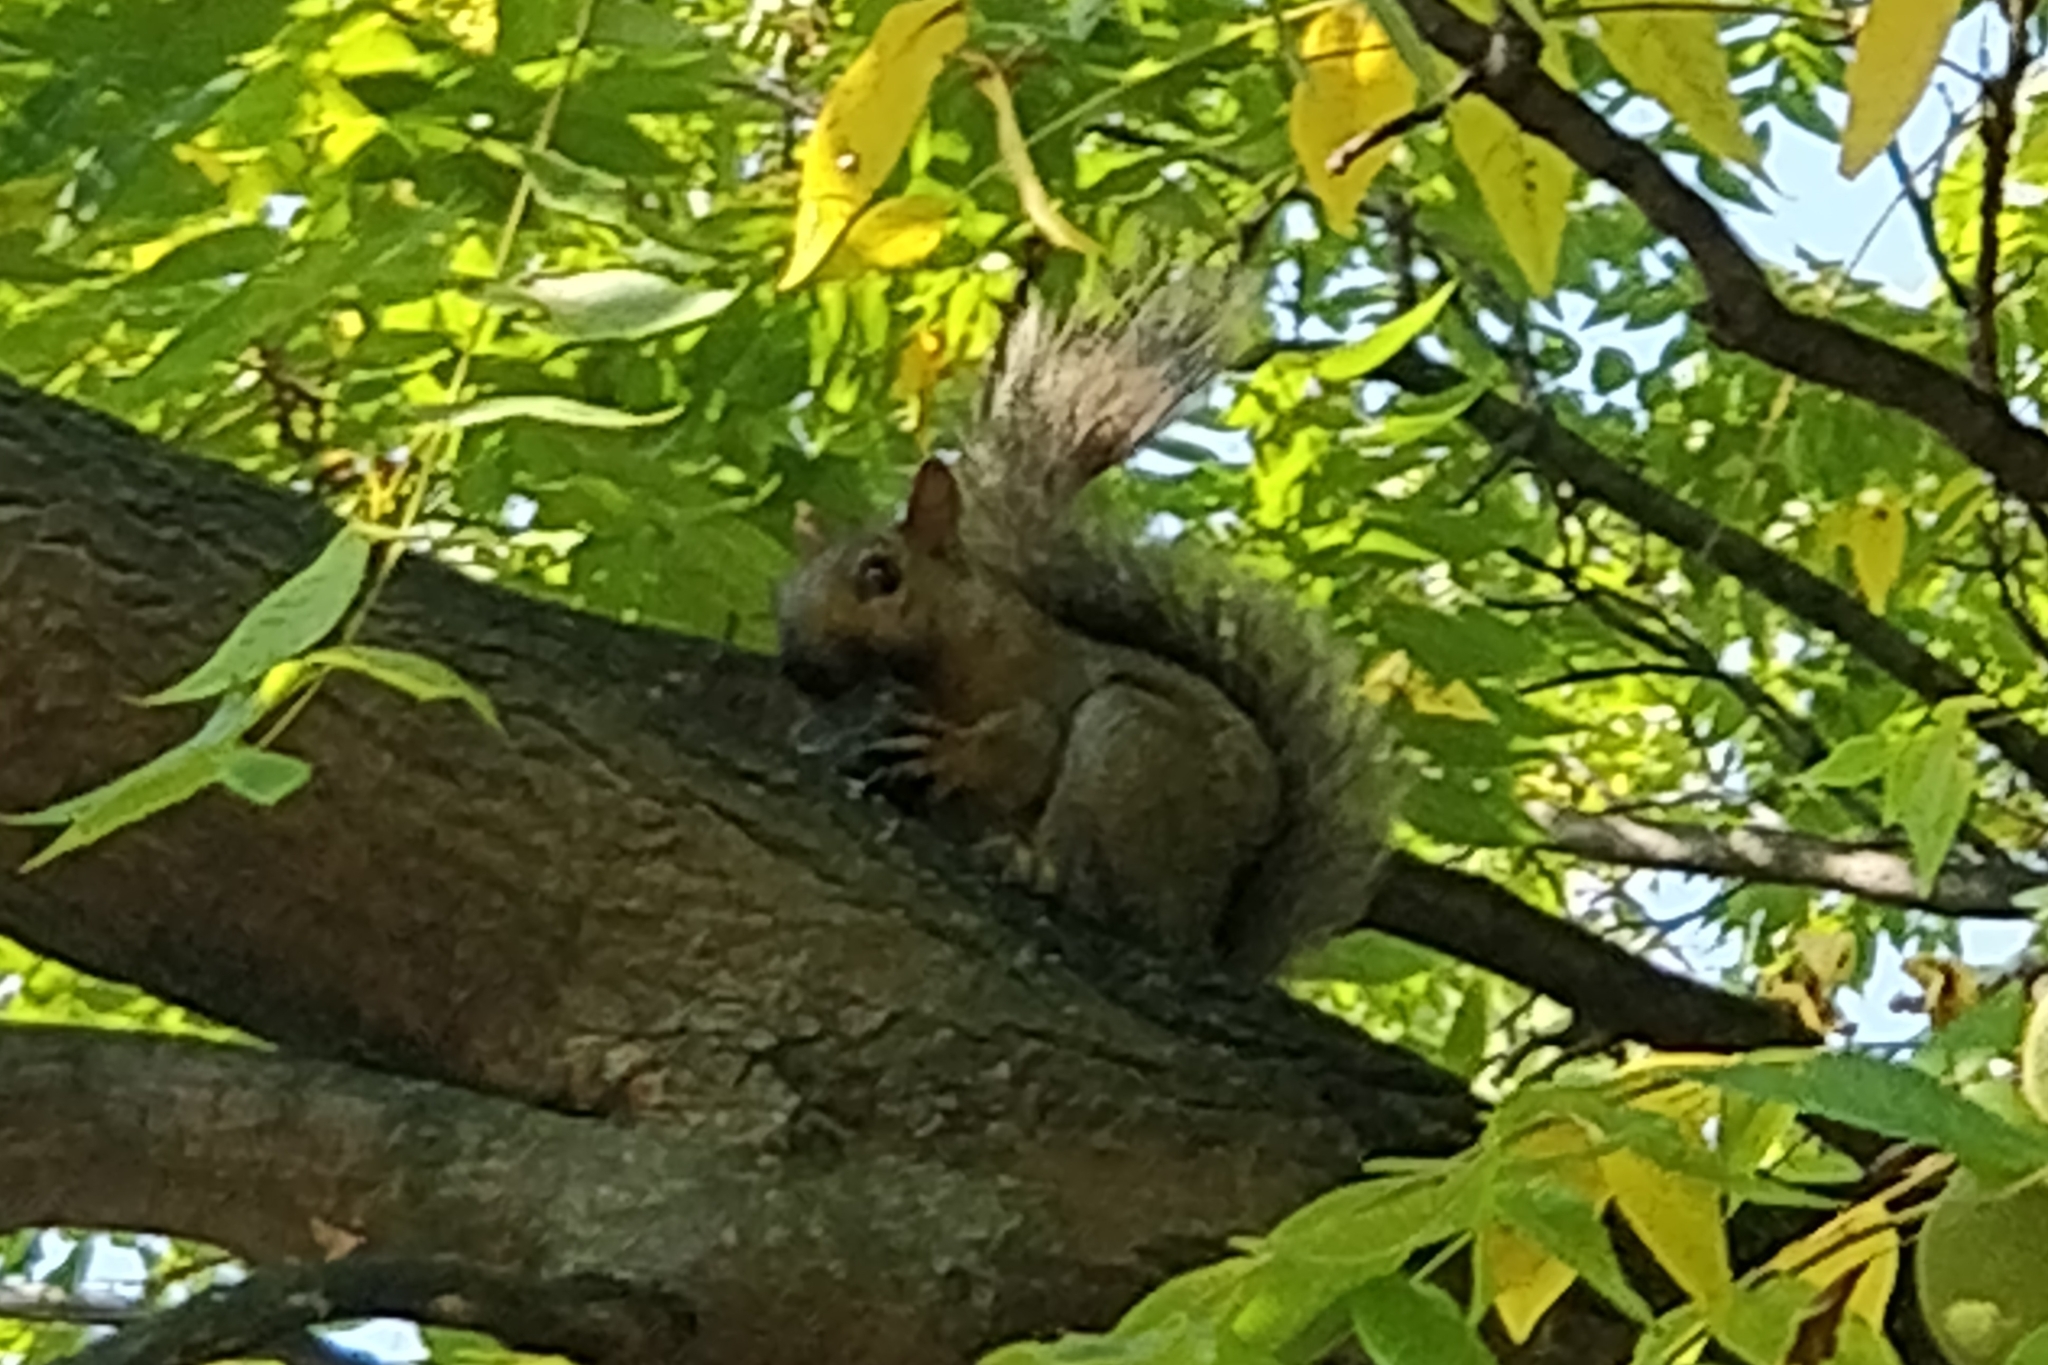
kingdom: Animalia
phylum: Chordata
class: Mammalia
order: Rodentia
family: Sciuridae
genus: Sciurus
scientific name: Sciurus carolinensis
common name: Eastern gray squirrel
